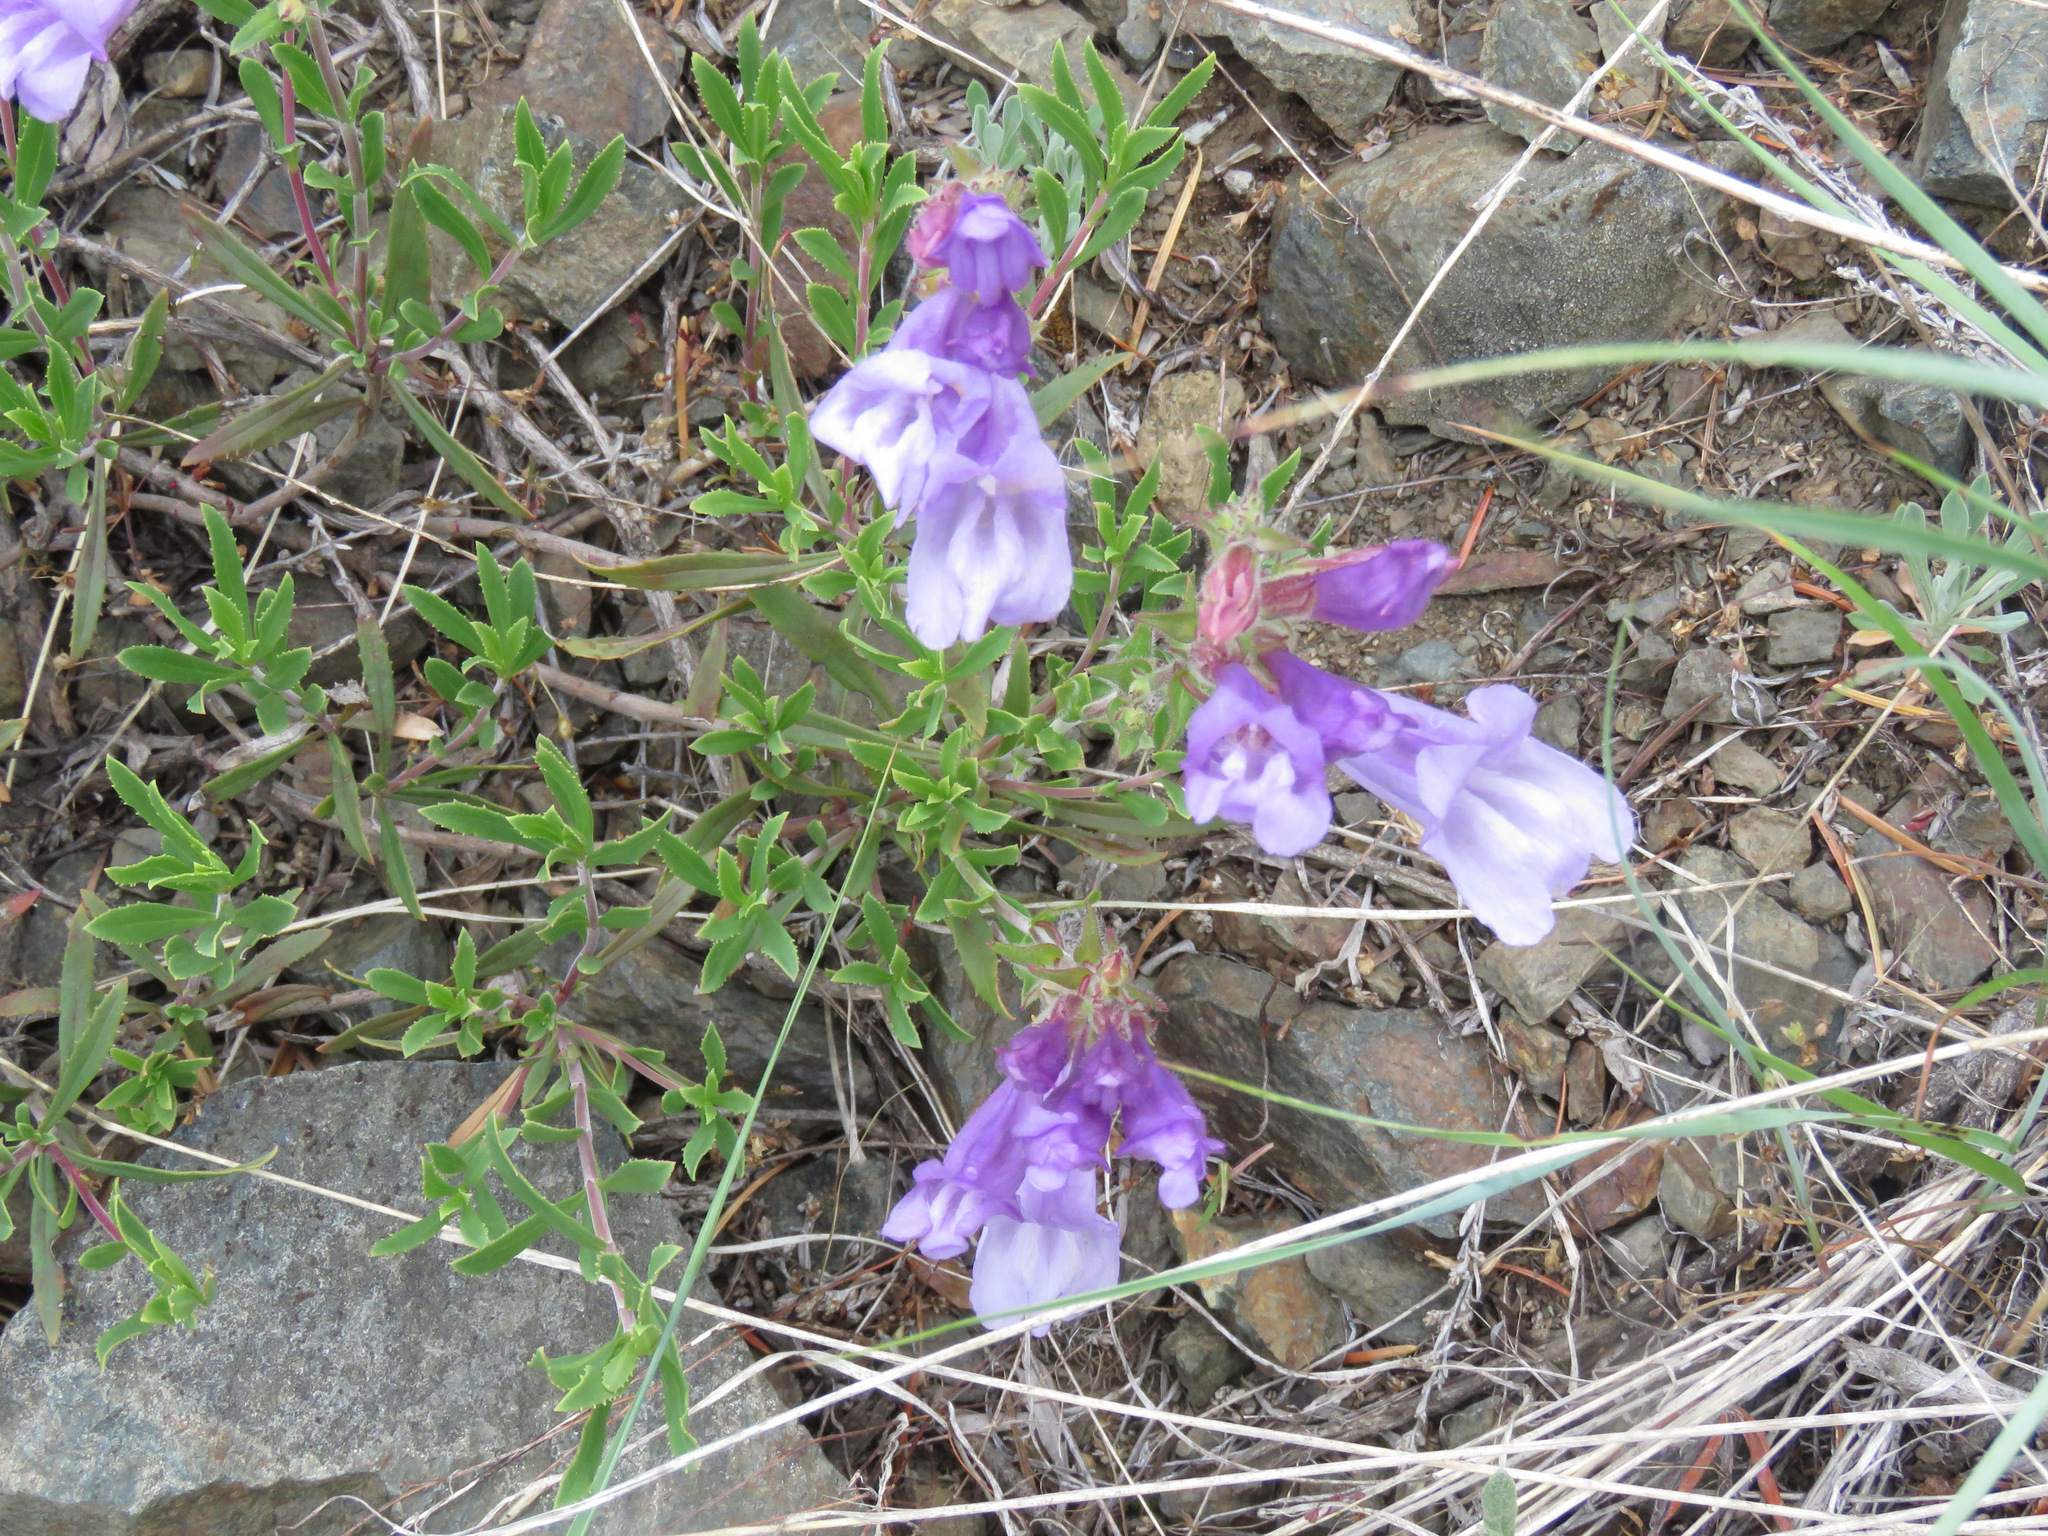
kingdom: Plantae
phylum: Tracheophyta
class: Magnoliopsida
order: Lamiales
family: Plantaginaceae
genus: Penstemon
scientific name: Penstemon fruticosus
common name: Bush penstemon
